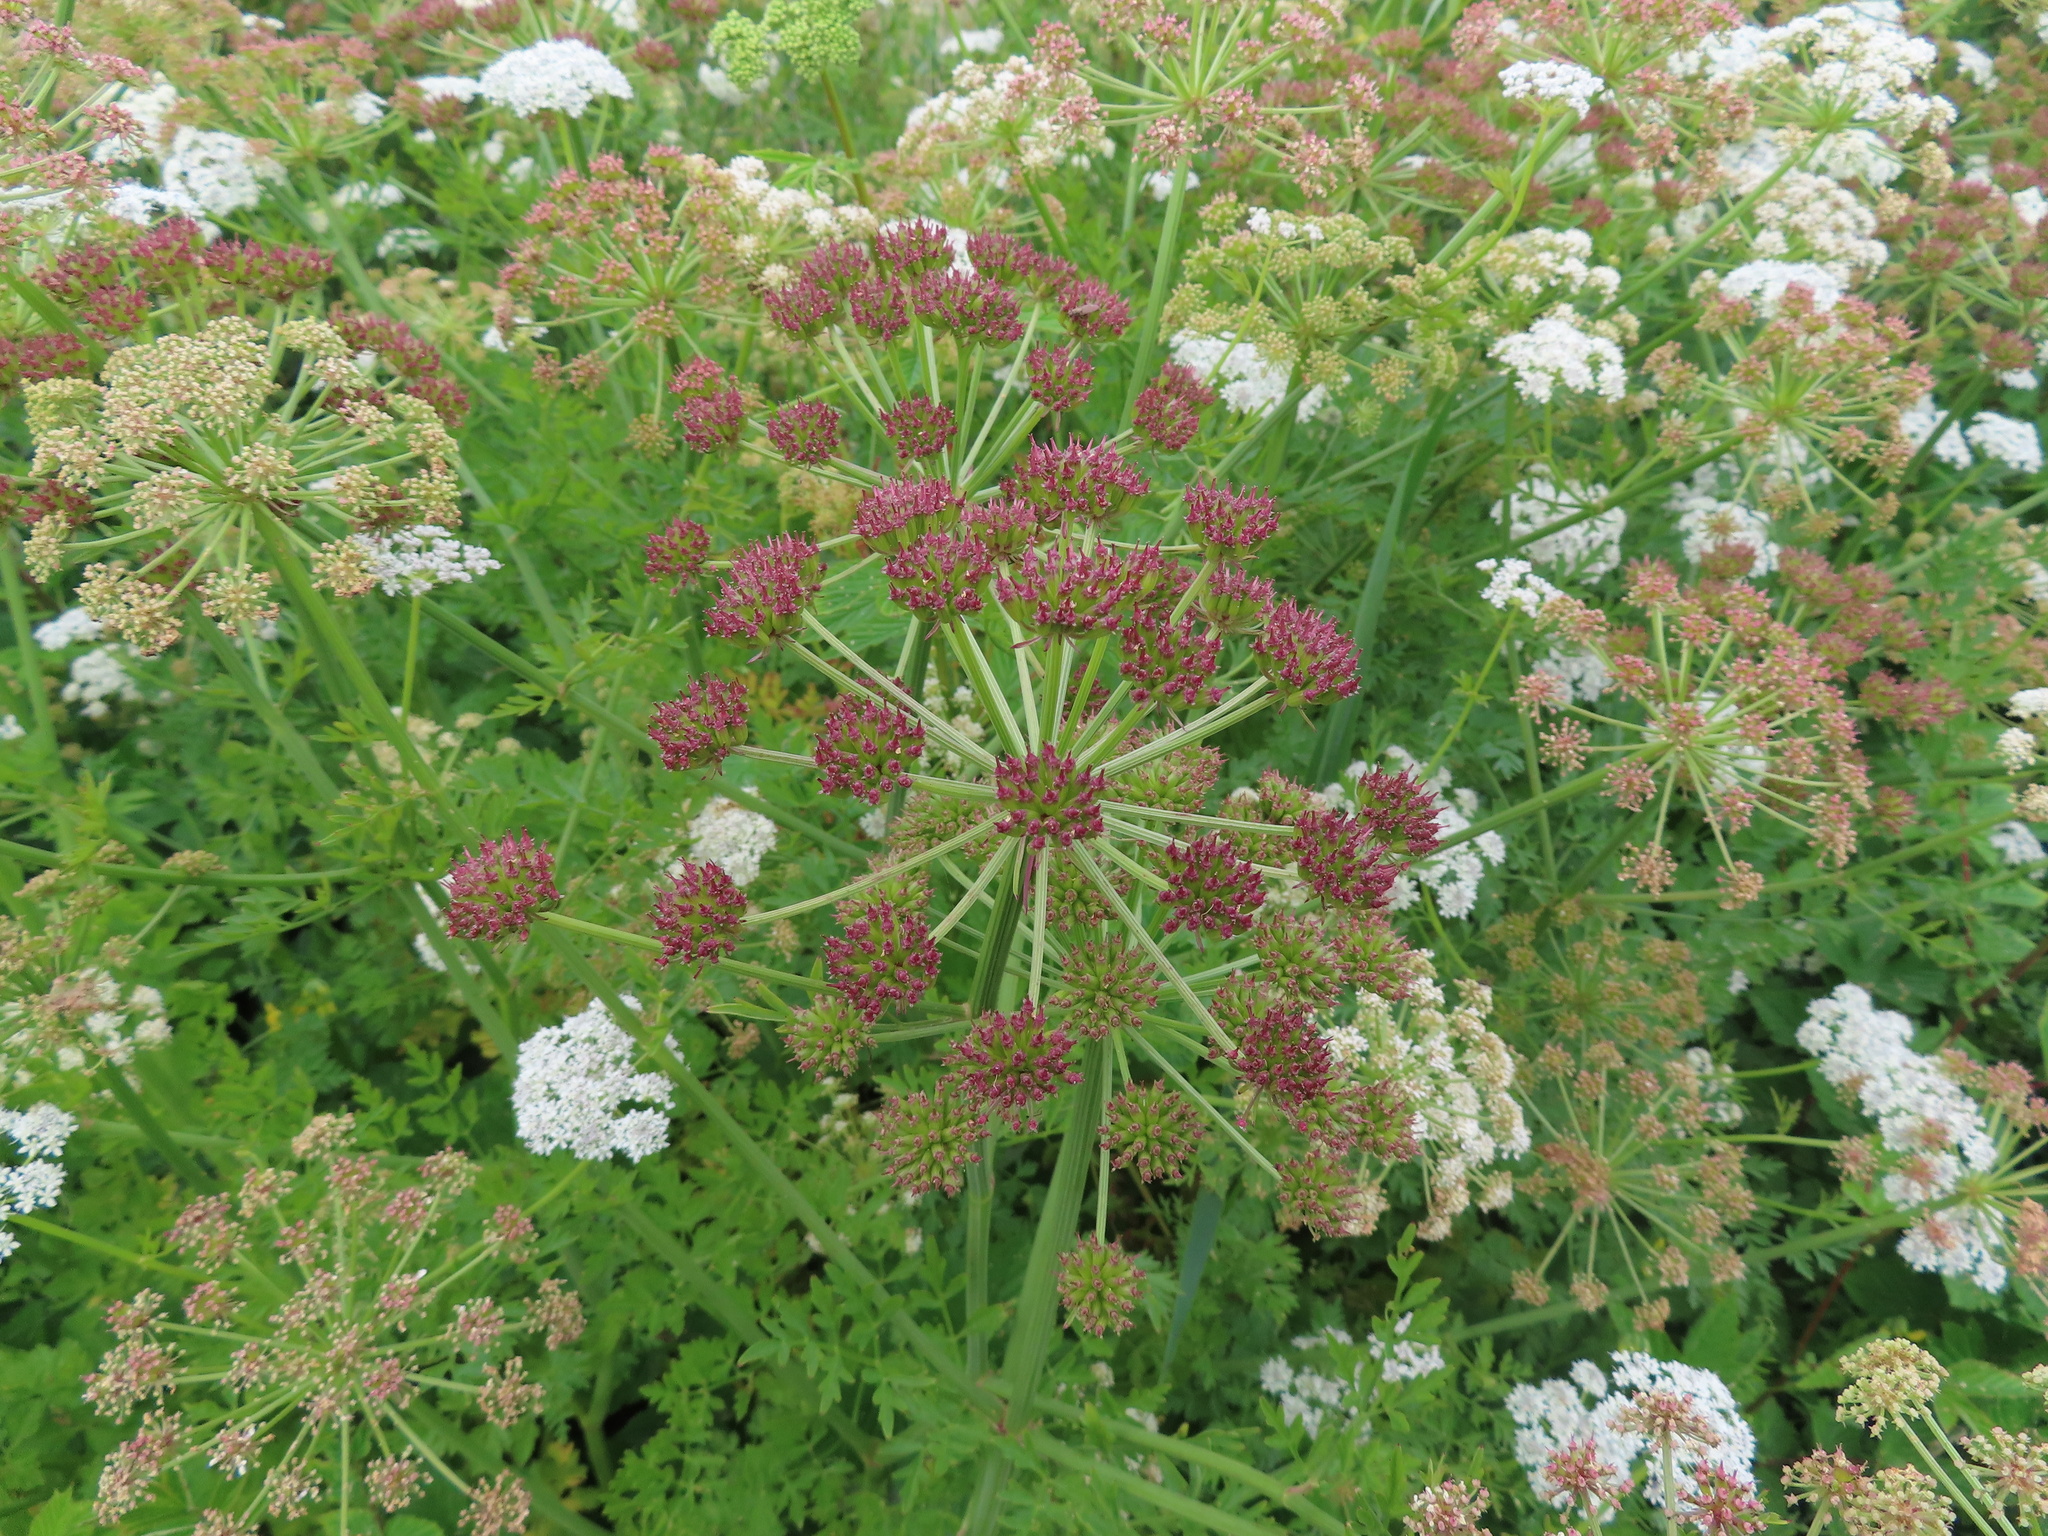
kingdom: Plantae
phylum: Tracheophyta
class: Magnoliopsida
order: Apiales
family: Apiaceae
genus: Oenanthe
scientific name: Oenanthe crocata
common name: Hemlock water-dropwort
